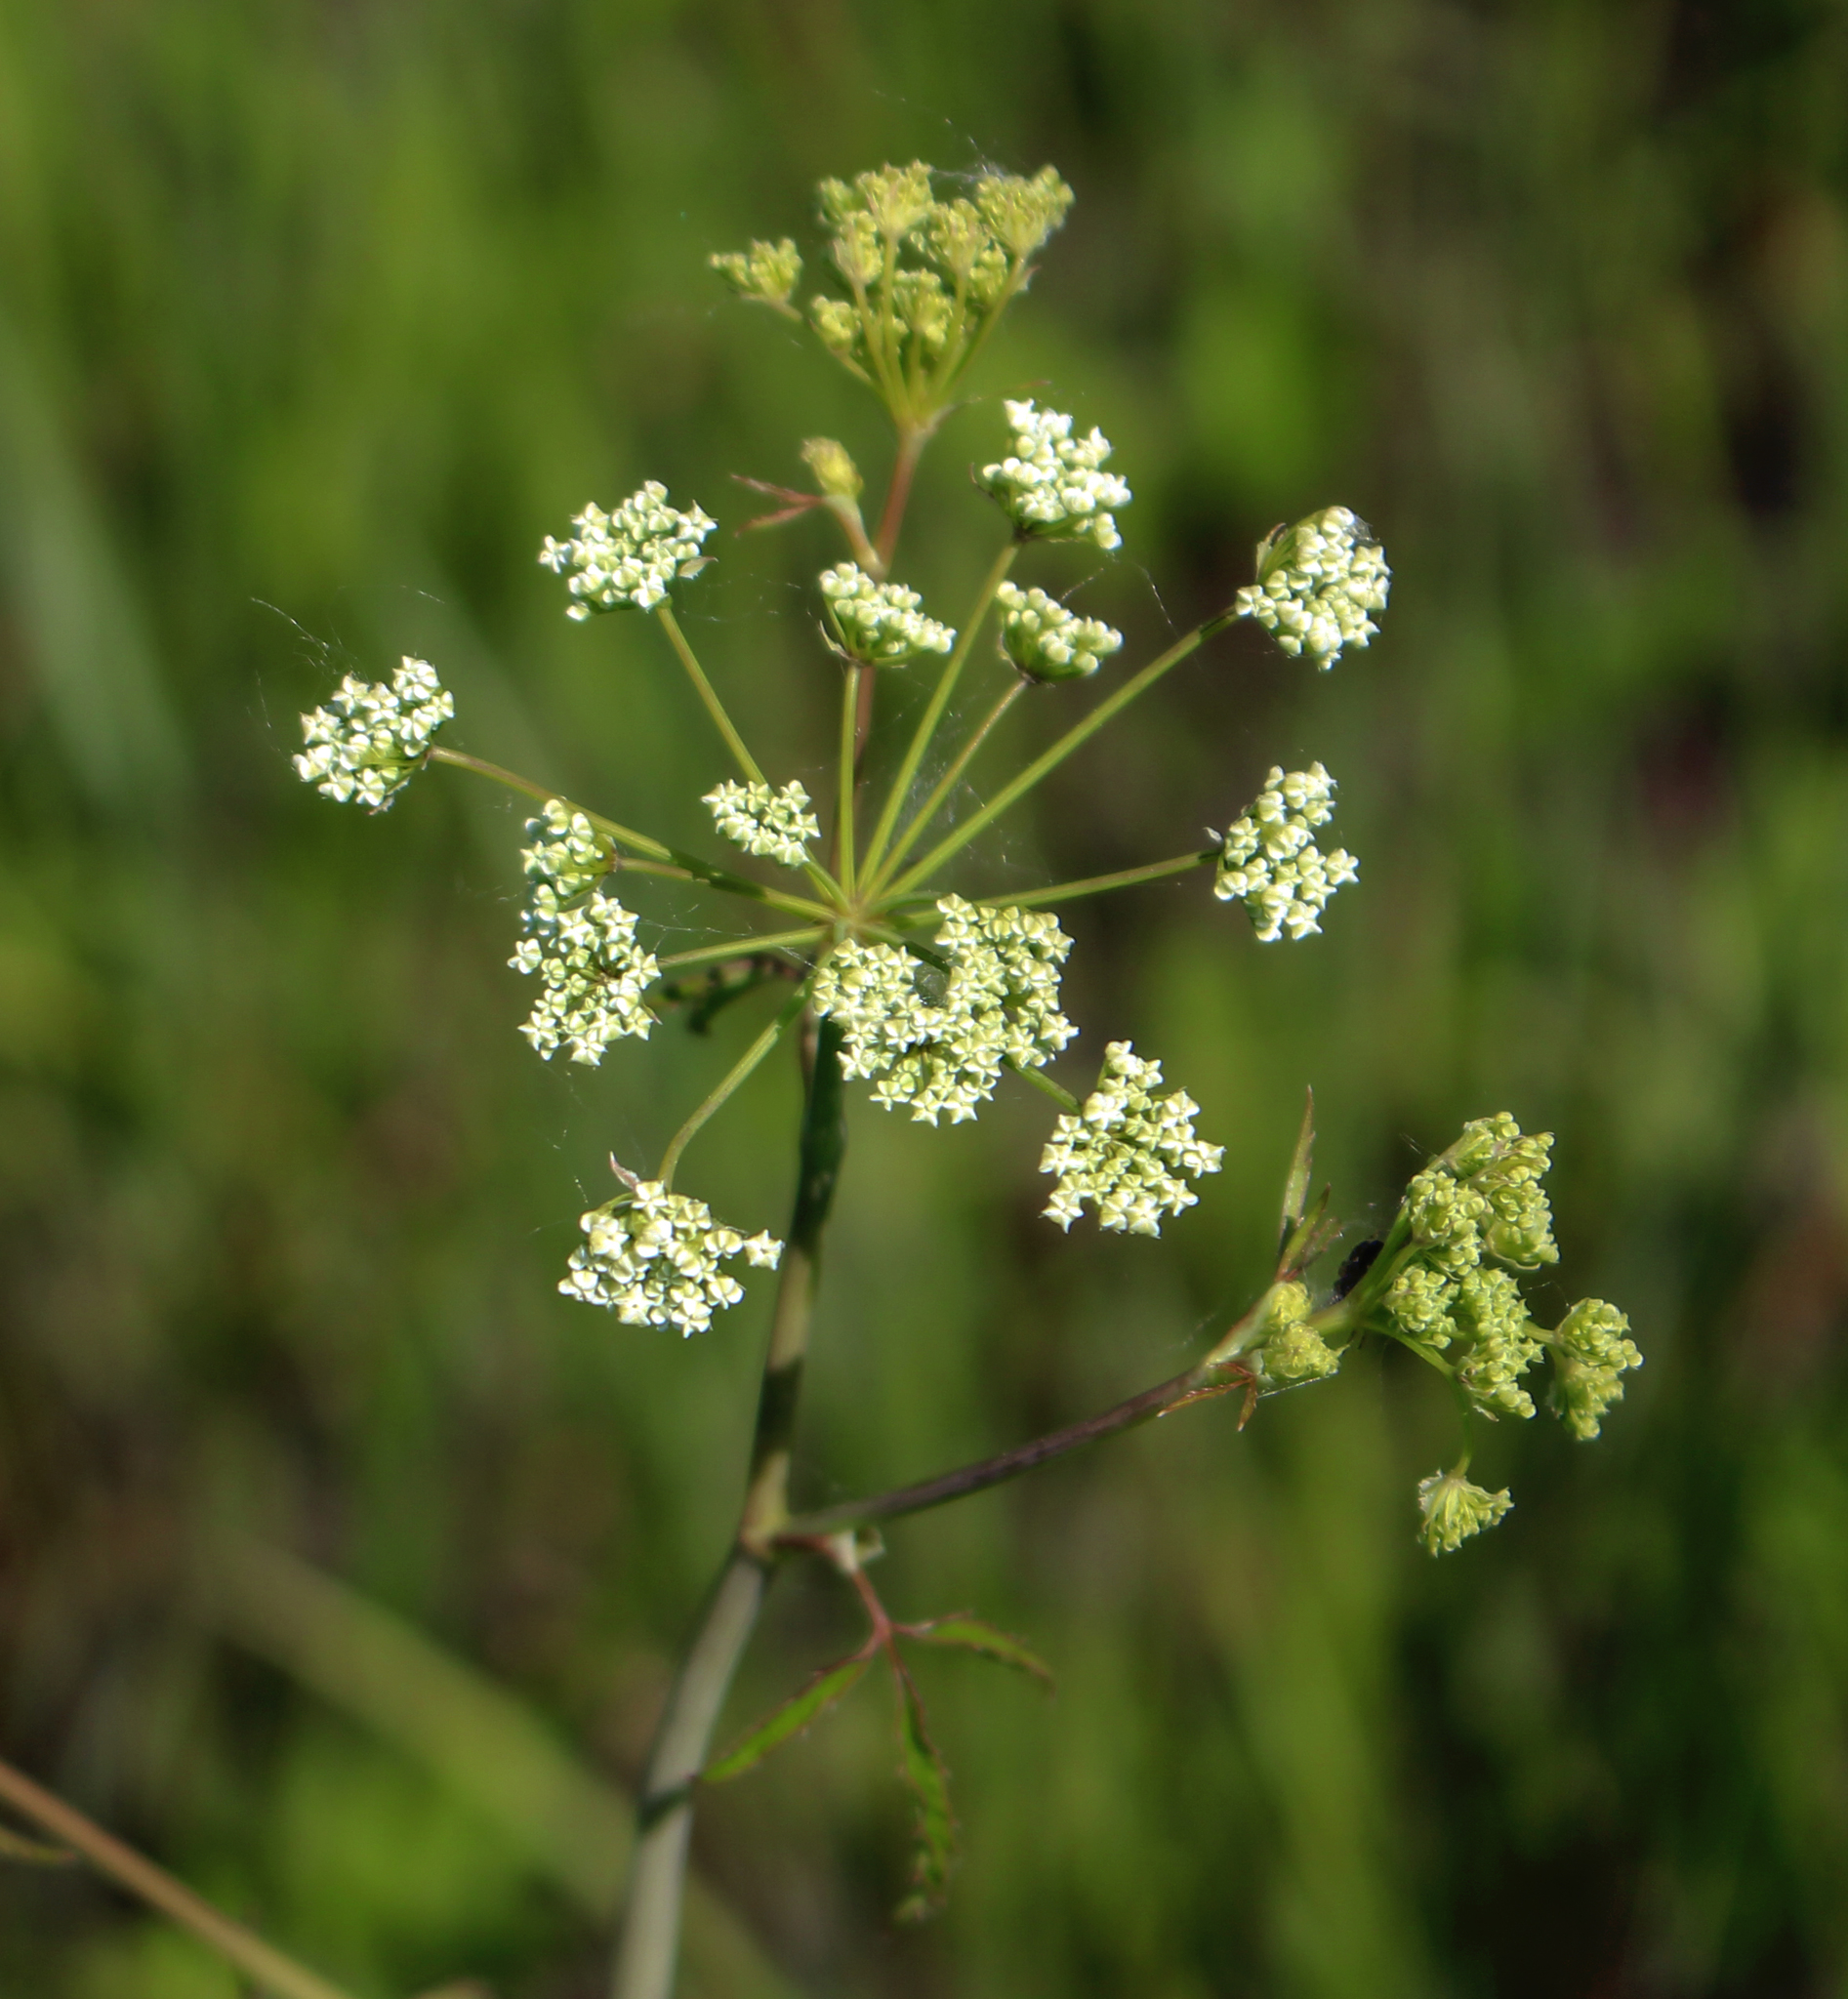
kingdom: Plantae
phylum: Tracheophyta
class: Magnoliopsida
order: Apiales
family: Apiaceae
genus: Cicuta
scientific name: Cicuta maculata
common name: Spotted cowbane
